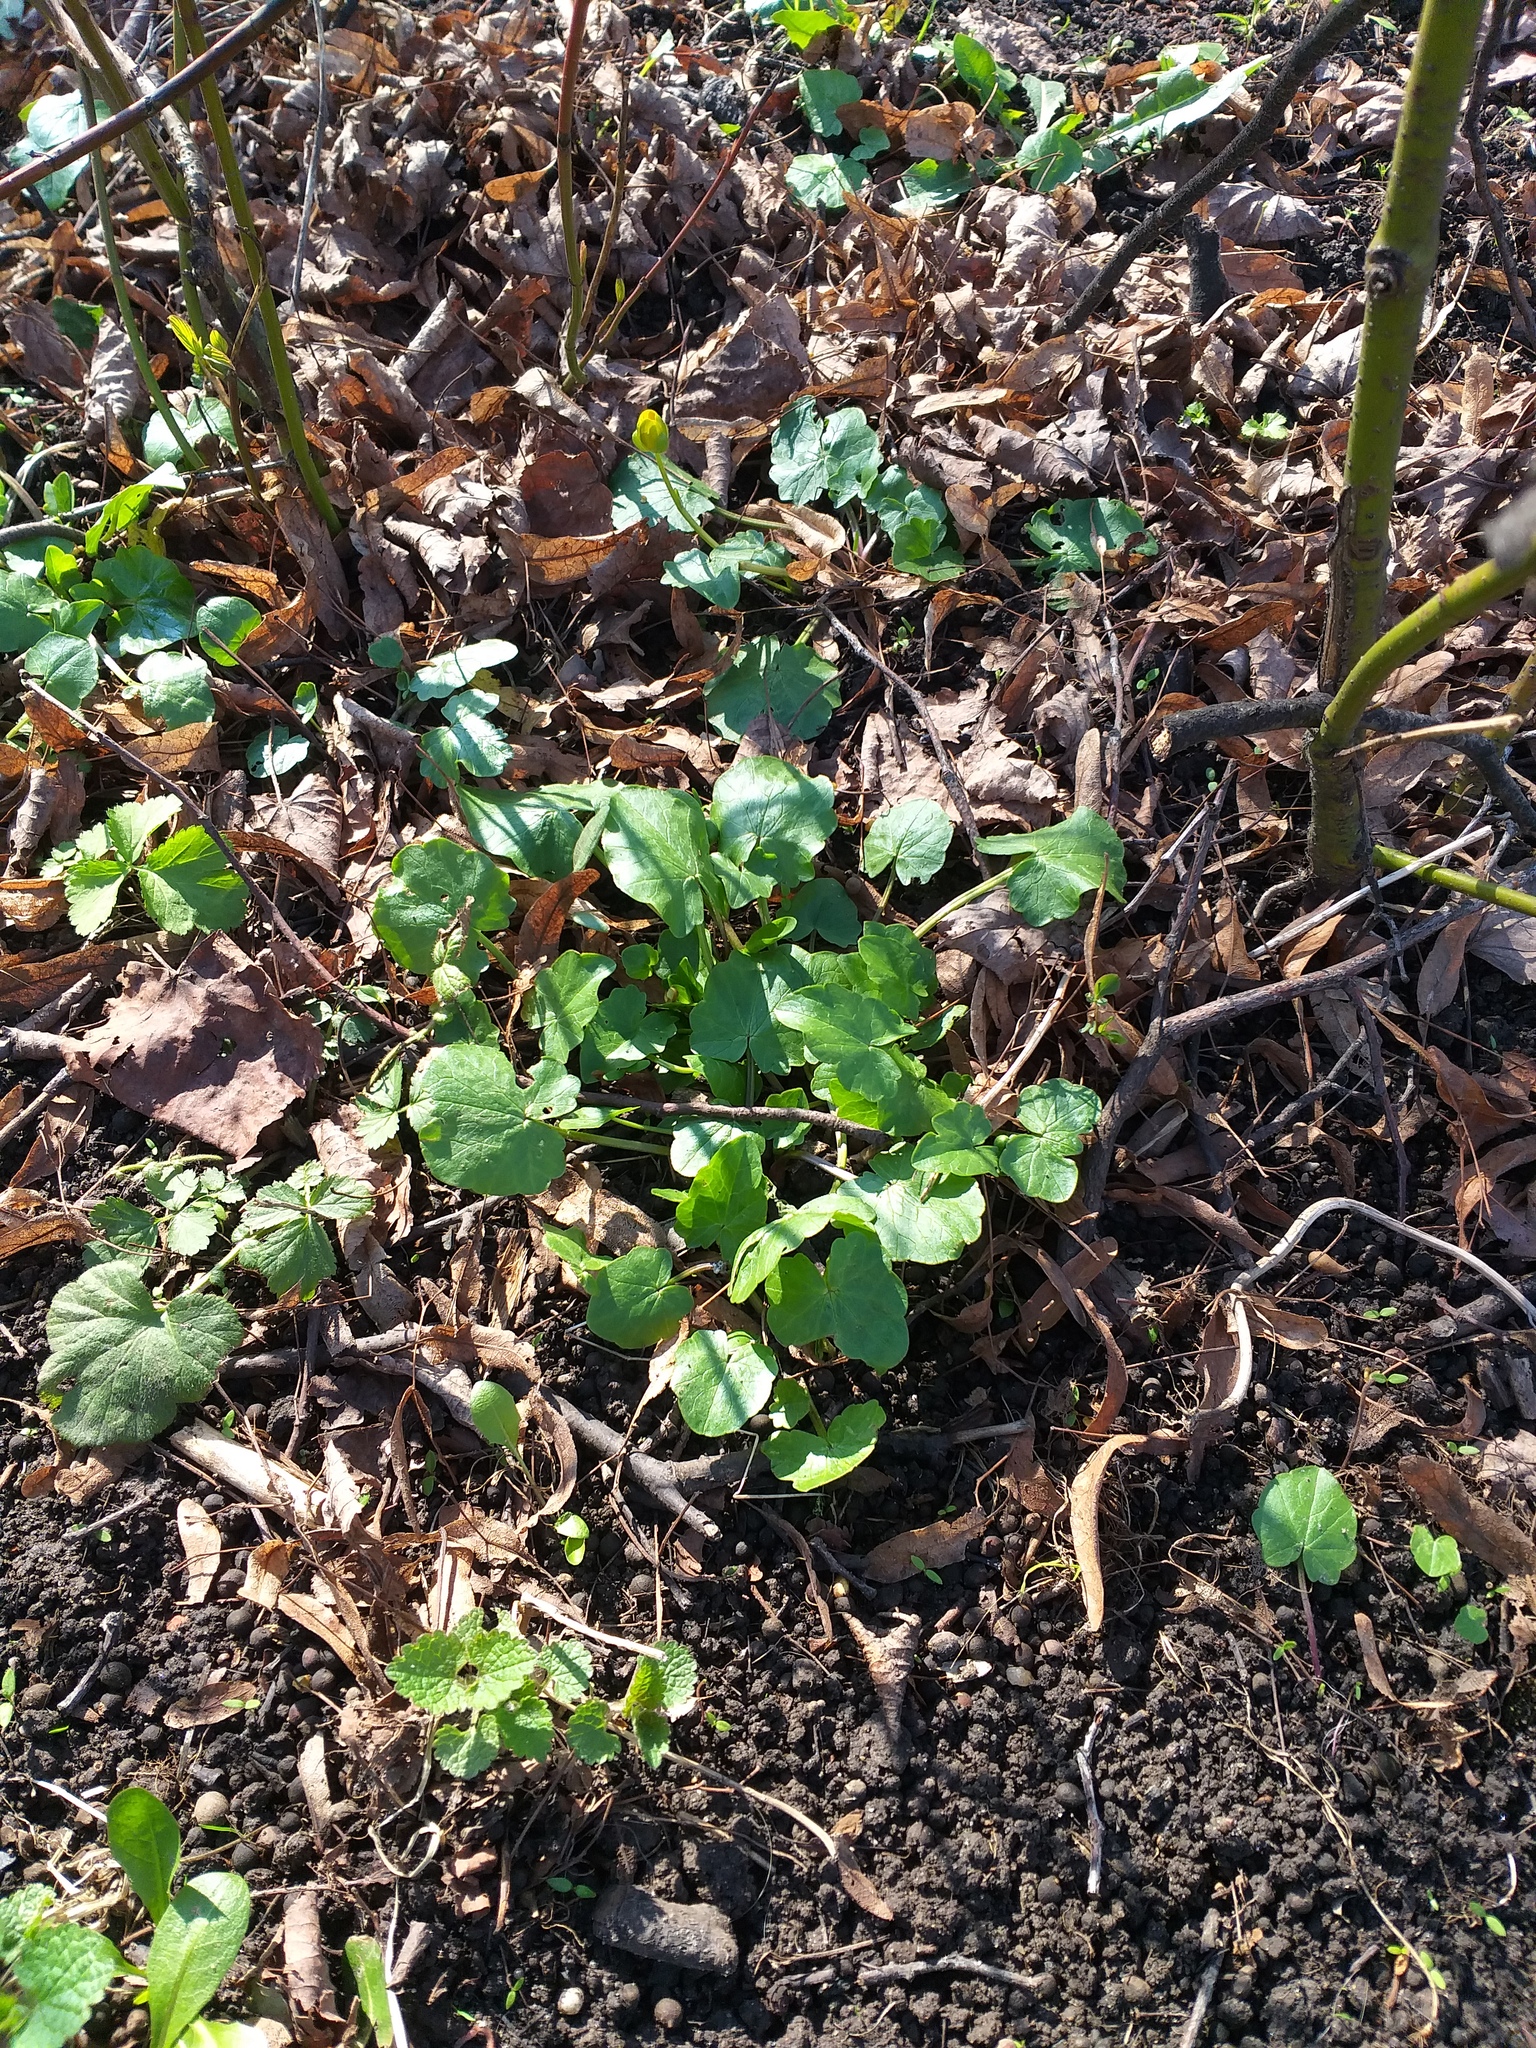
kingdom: Plantae
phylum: Tracheophyta
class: Magnoliopsida
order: Ranunculales
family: Ranunculaceae
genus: Ficaria
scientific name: Ficaria verna
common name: Lesser celandine
